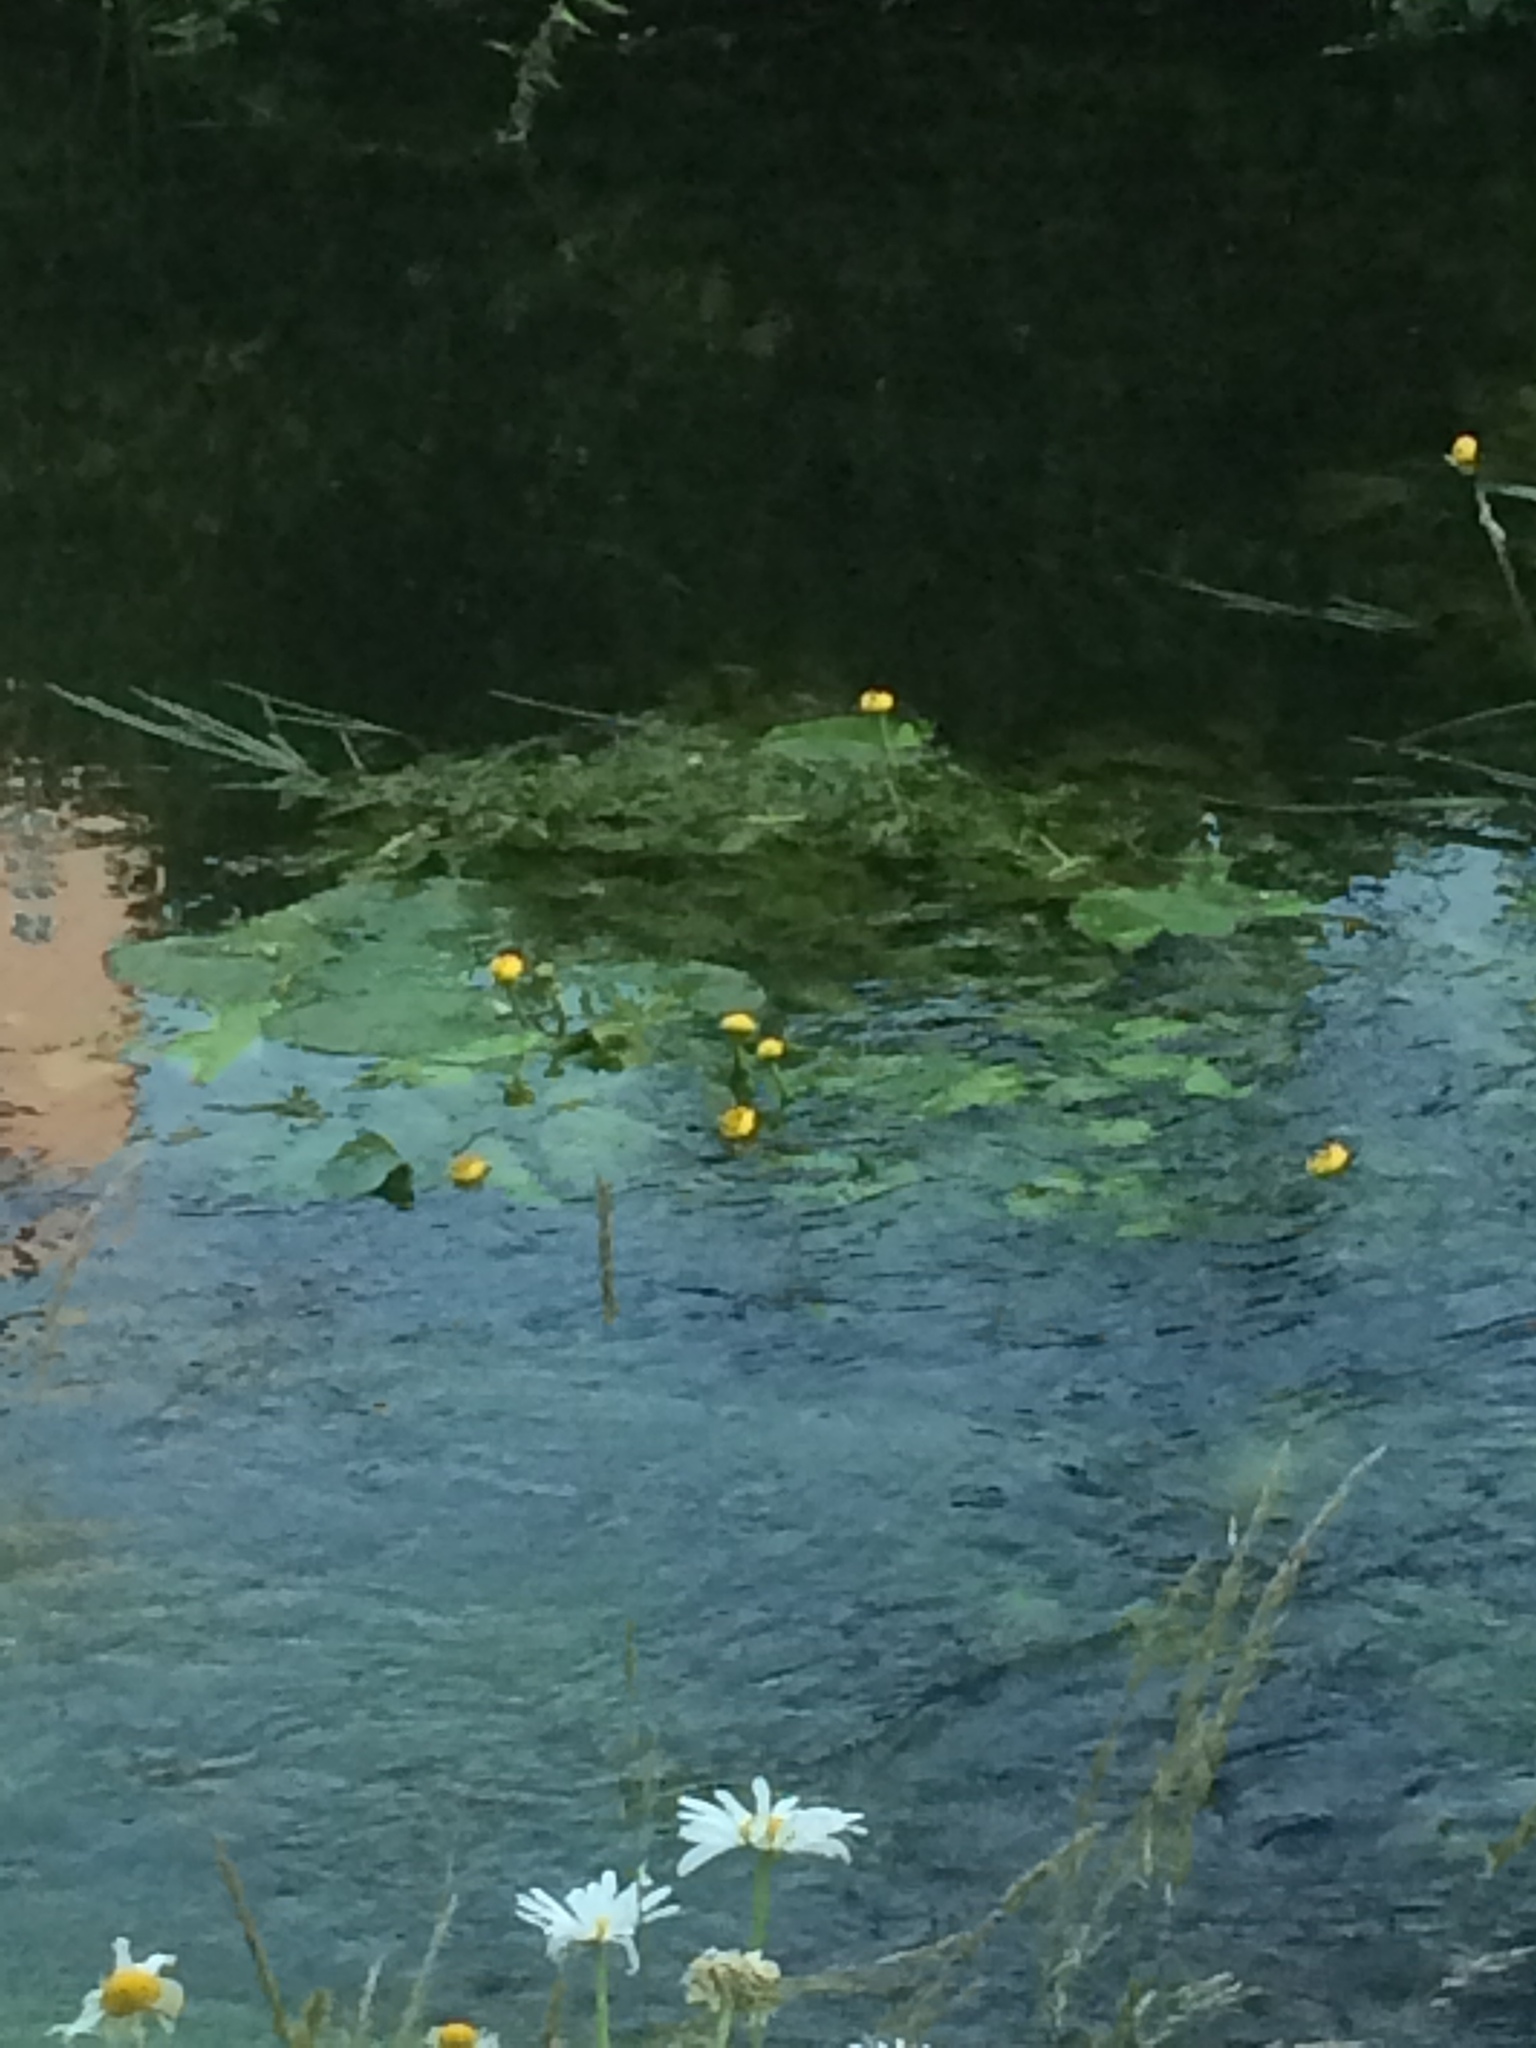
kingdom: Plantae
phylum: Tracheophyta
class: Magnoliopsida
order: Nymphaeales
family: Nymphaeaceae
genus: Nuphar
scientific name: Nuphar lutea
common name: Yellow water-lily
